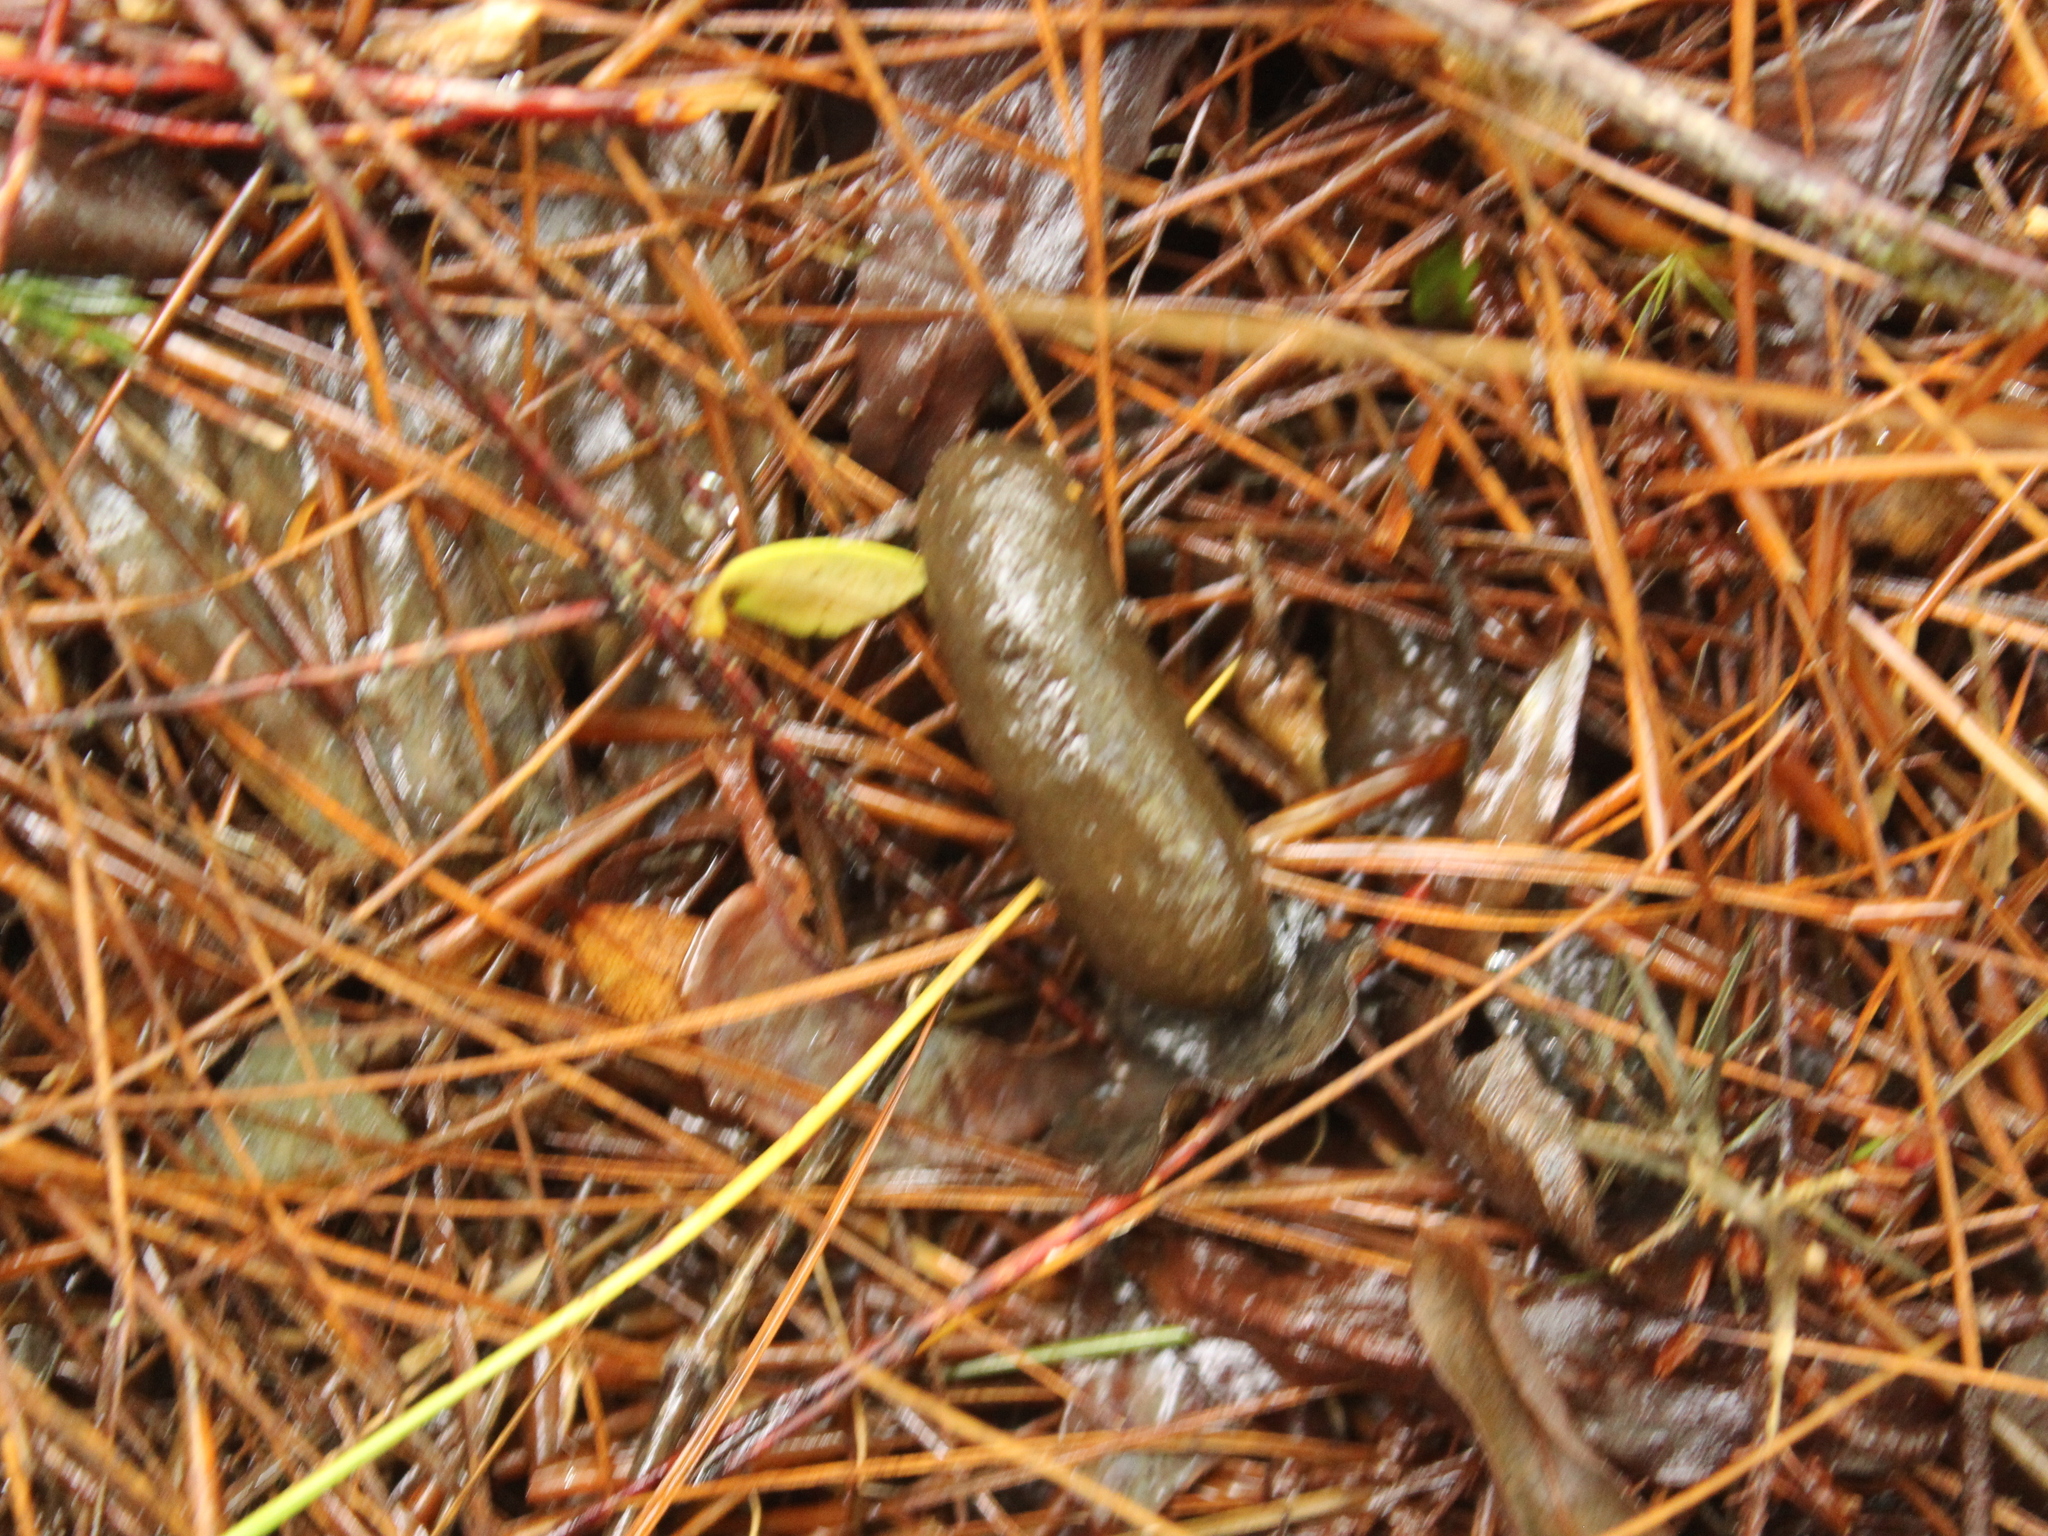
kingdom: Animalia
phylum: Chordata
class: Mammalia
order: Diprotodontia
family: Phalangeridae
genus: Trichosurus
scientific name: Trichosurus vulpecula
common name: Common brushtail
